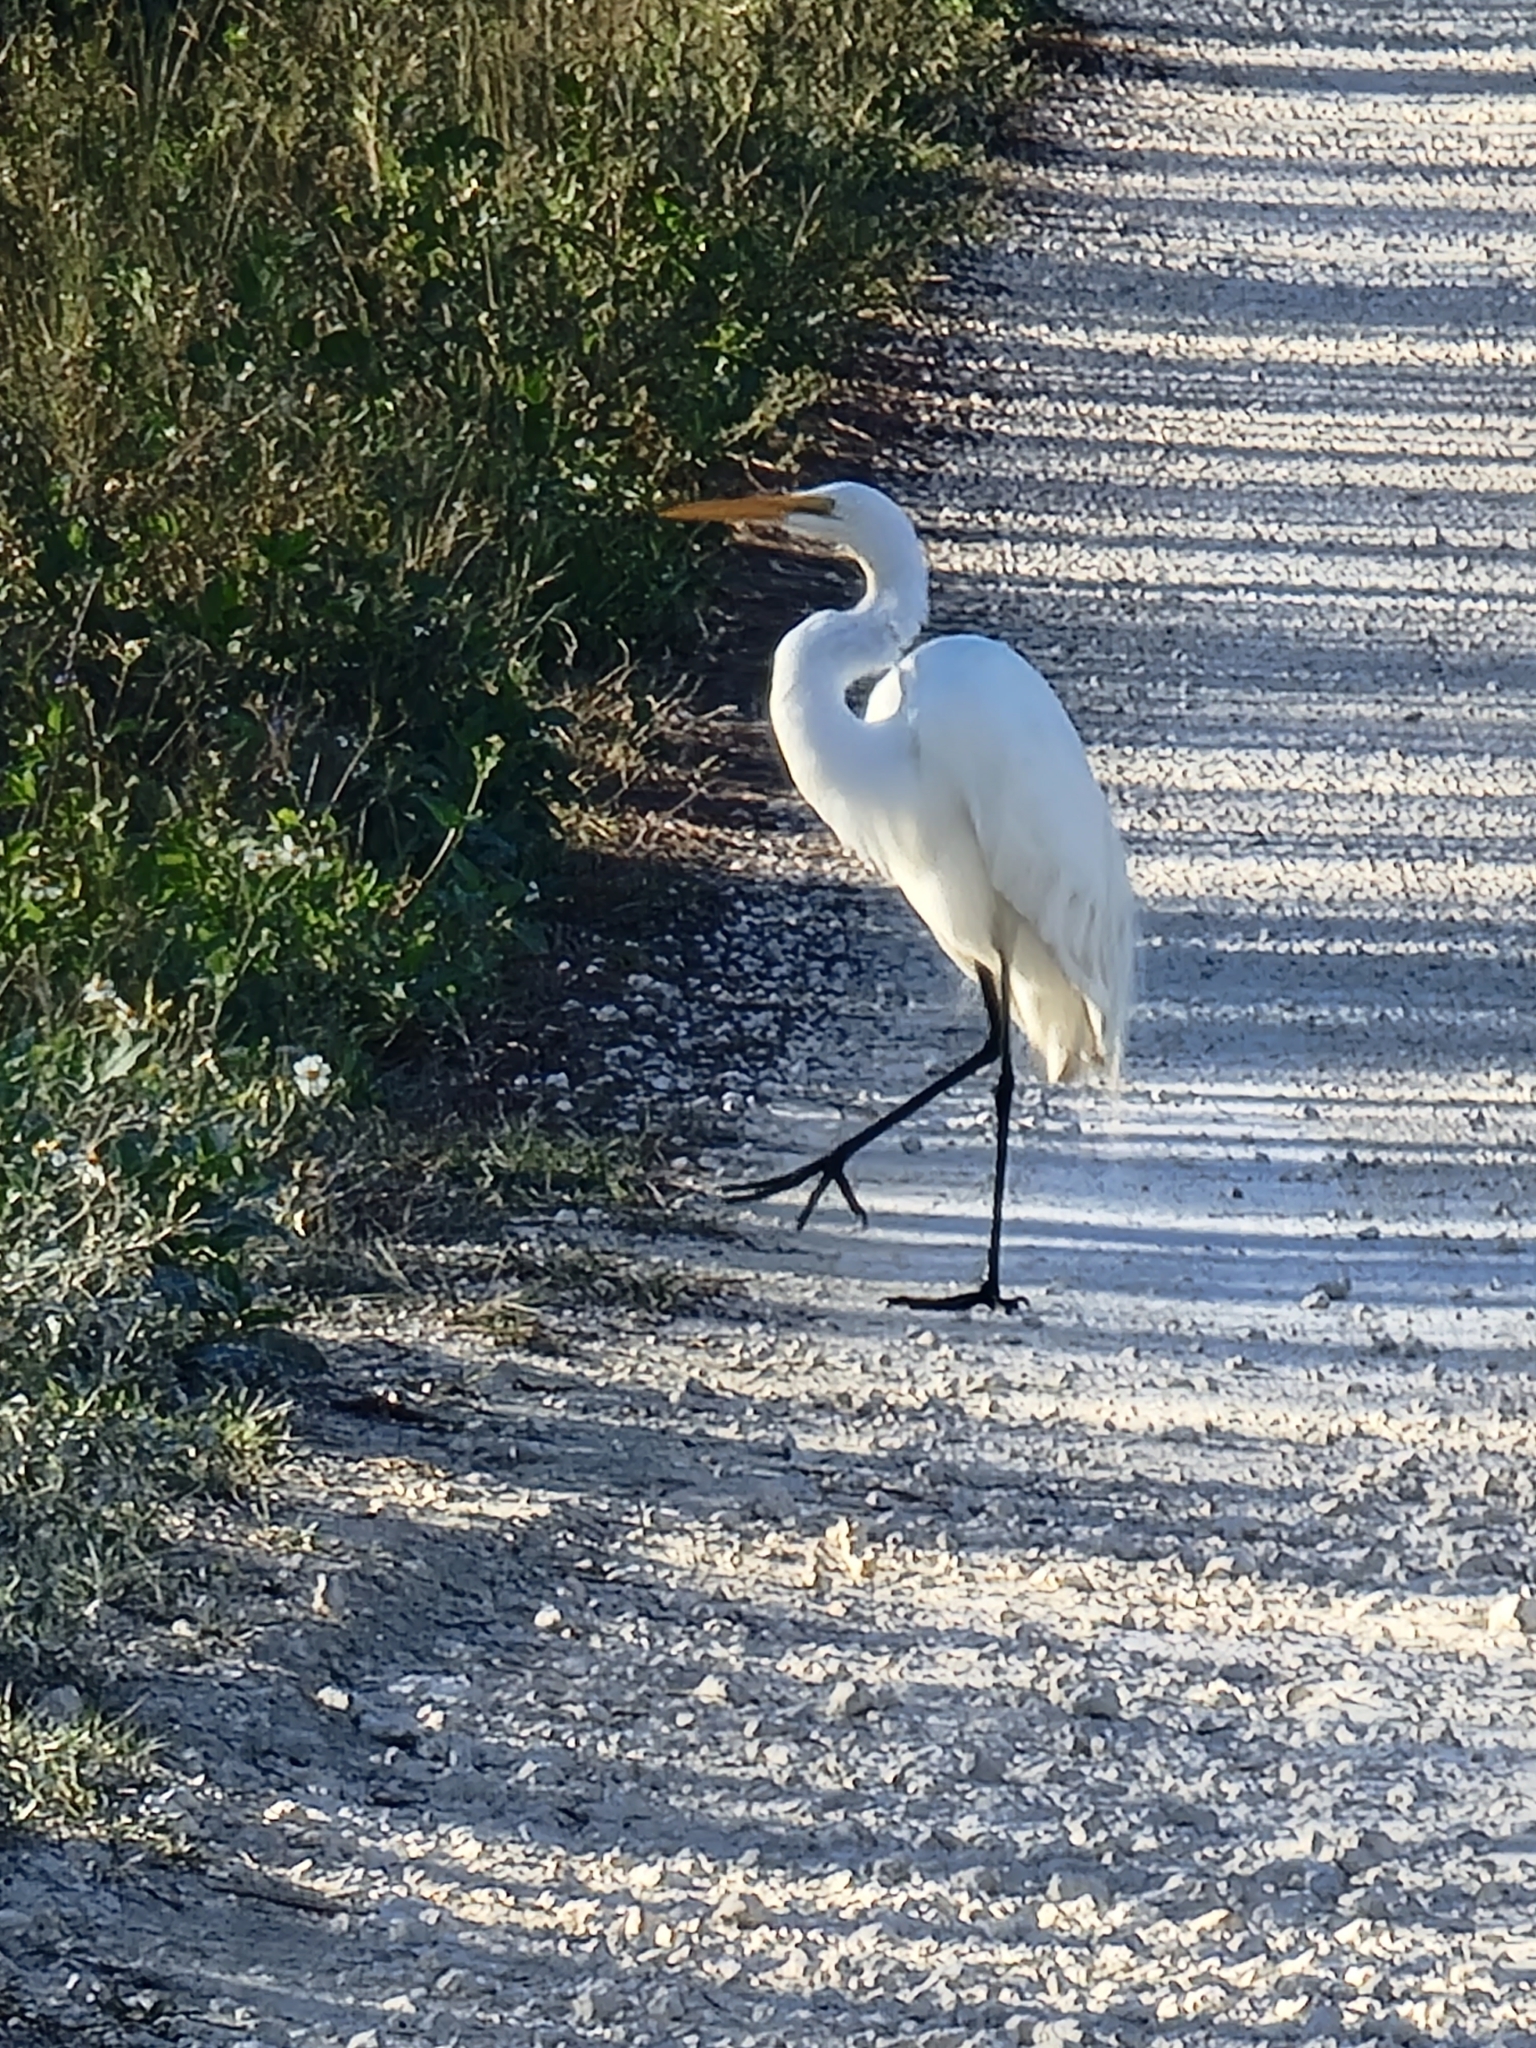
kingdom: Animalia
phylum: Chordata
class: Aves
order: Pelecaniformes
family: Ardeidae
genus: Ardea
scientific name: Ardea alba
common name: Great egret
